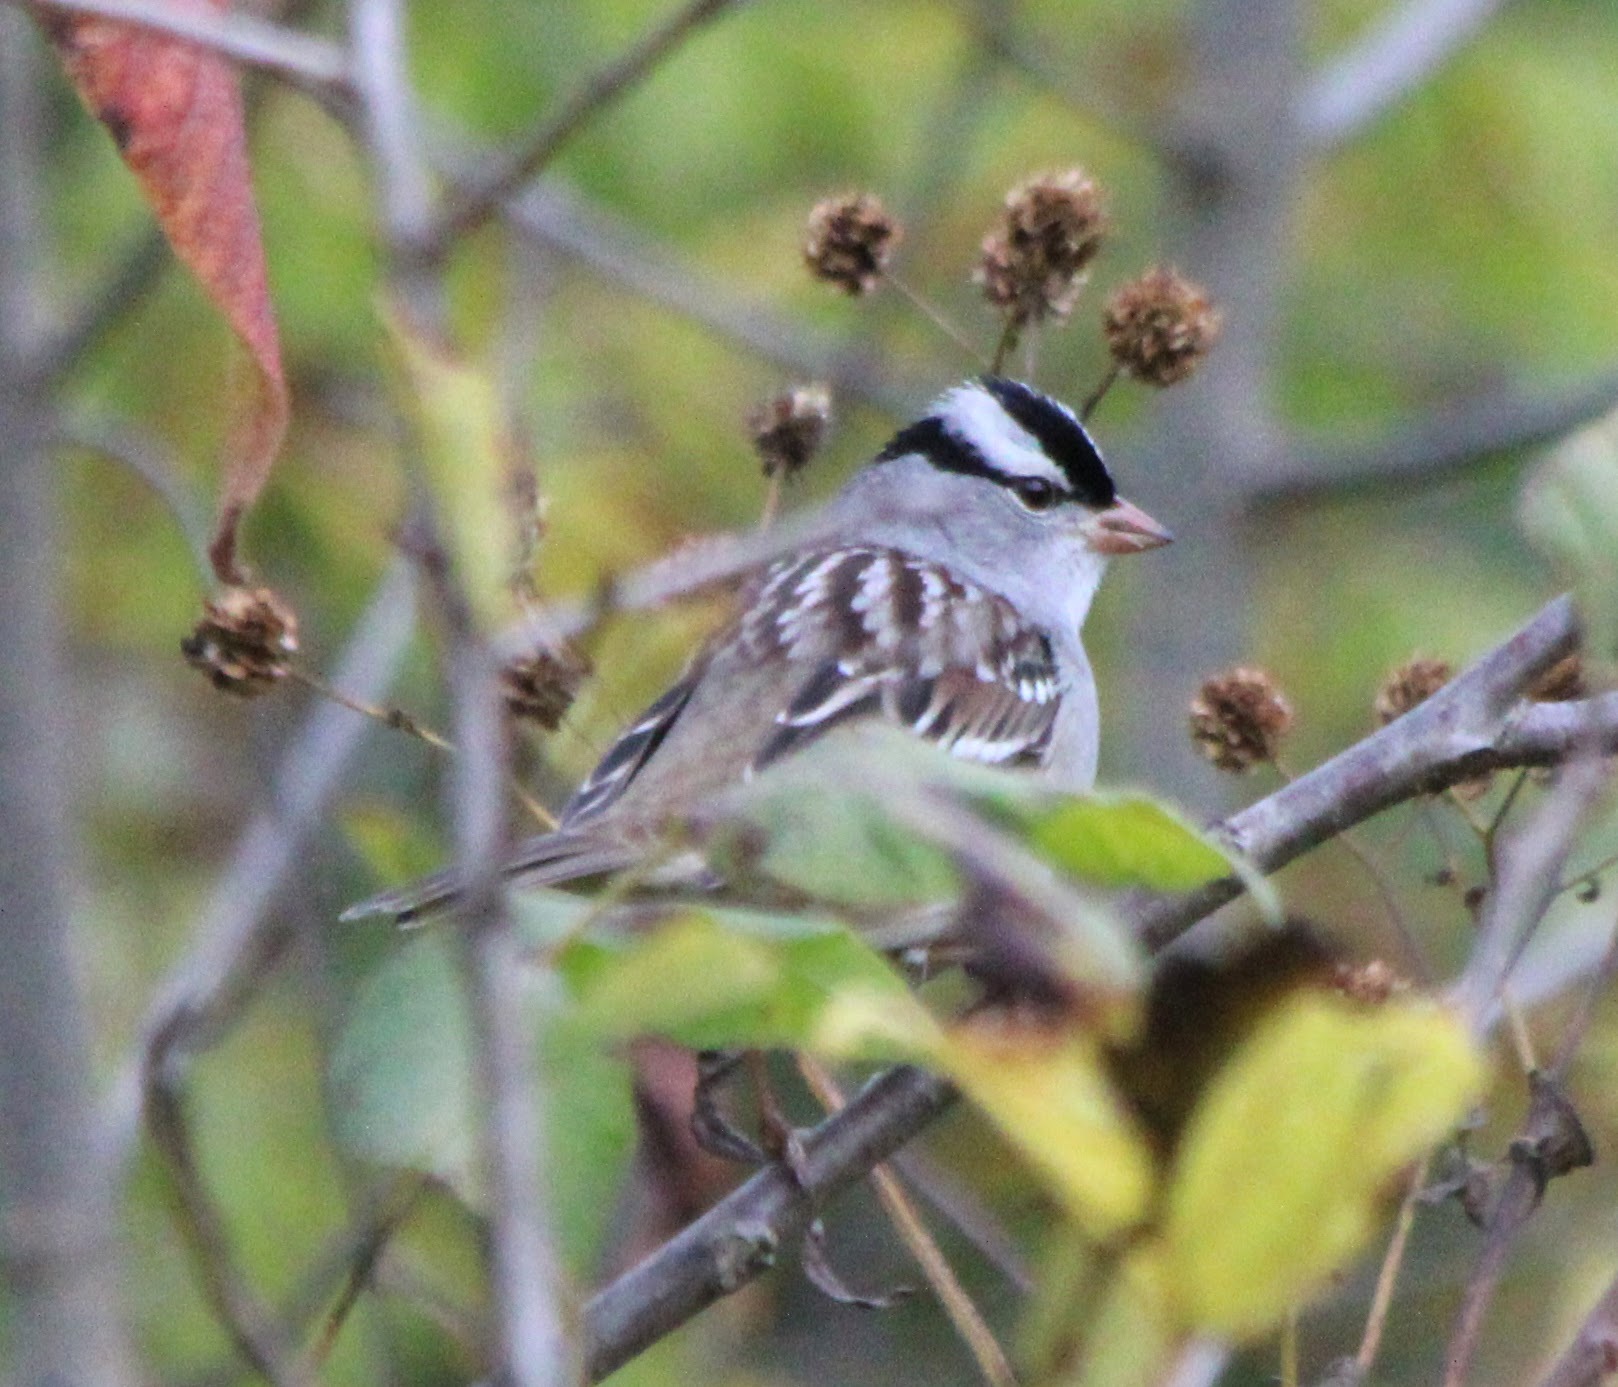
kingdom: Animalia
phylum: Chordata
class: Aves
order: Passeriformes
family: Passerellidae
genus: Zonotrichia
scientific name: Zonotrichia leucophrys
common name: White-crowned sparrow
